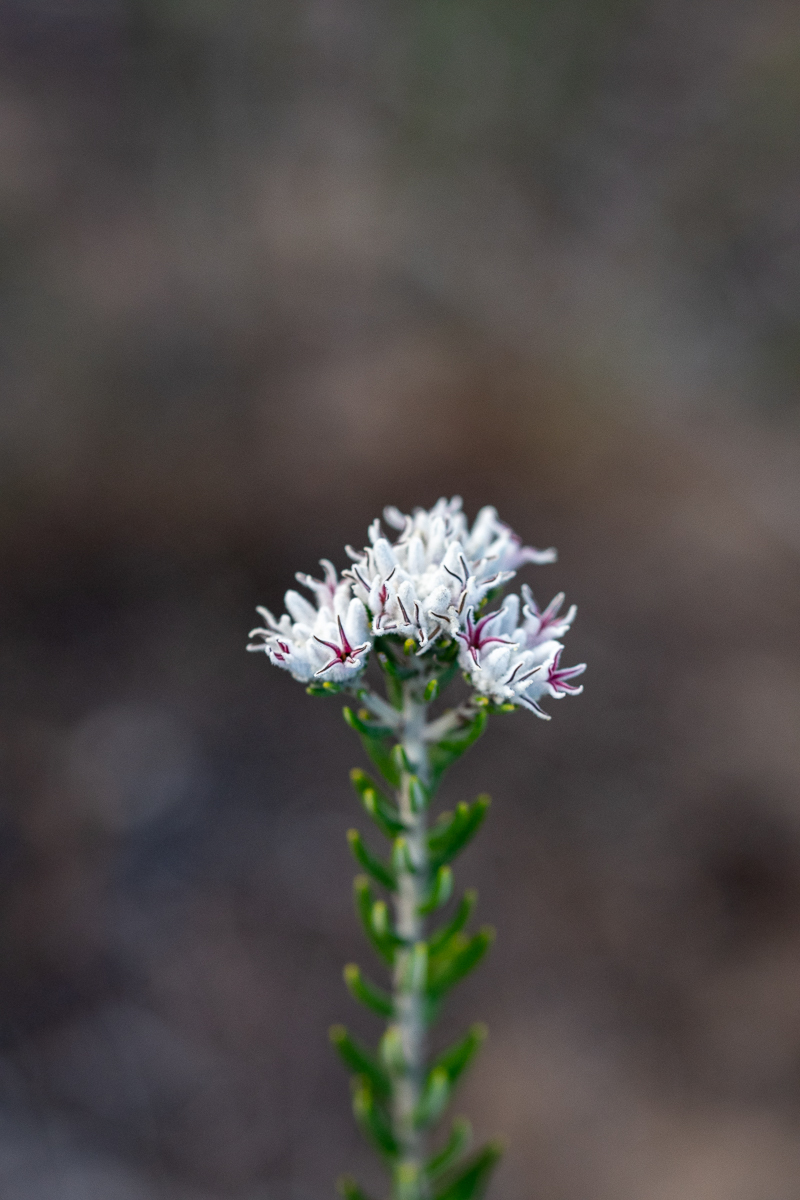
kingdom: Plantae
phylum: Tracheophyta
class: Magnoliopsida
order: Rosales
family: Rhamnaceae
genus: Trichocephalus
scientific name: Trichocephalus stipularis
